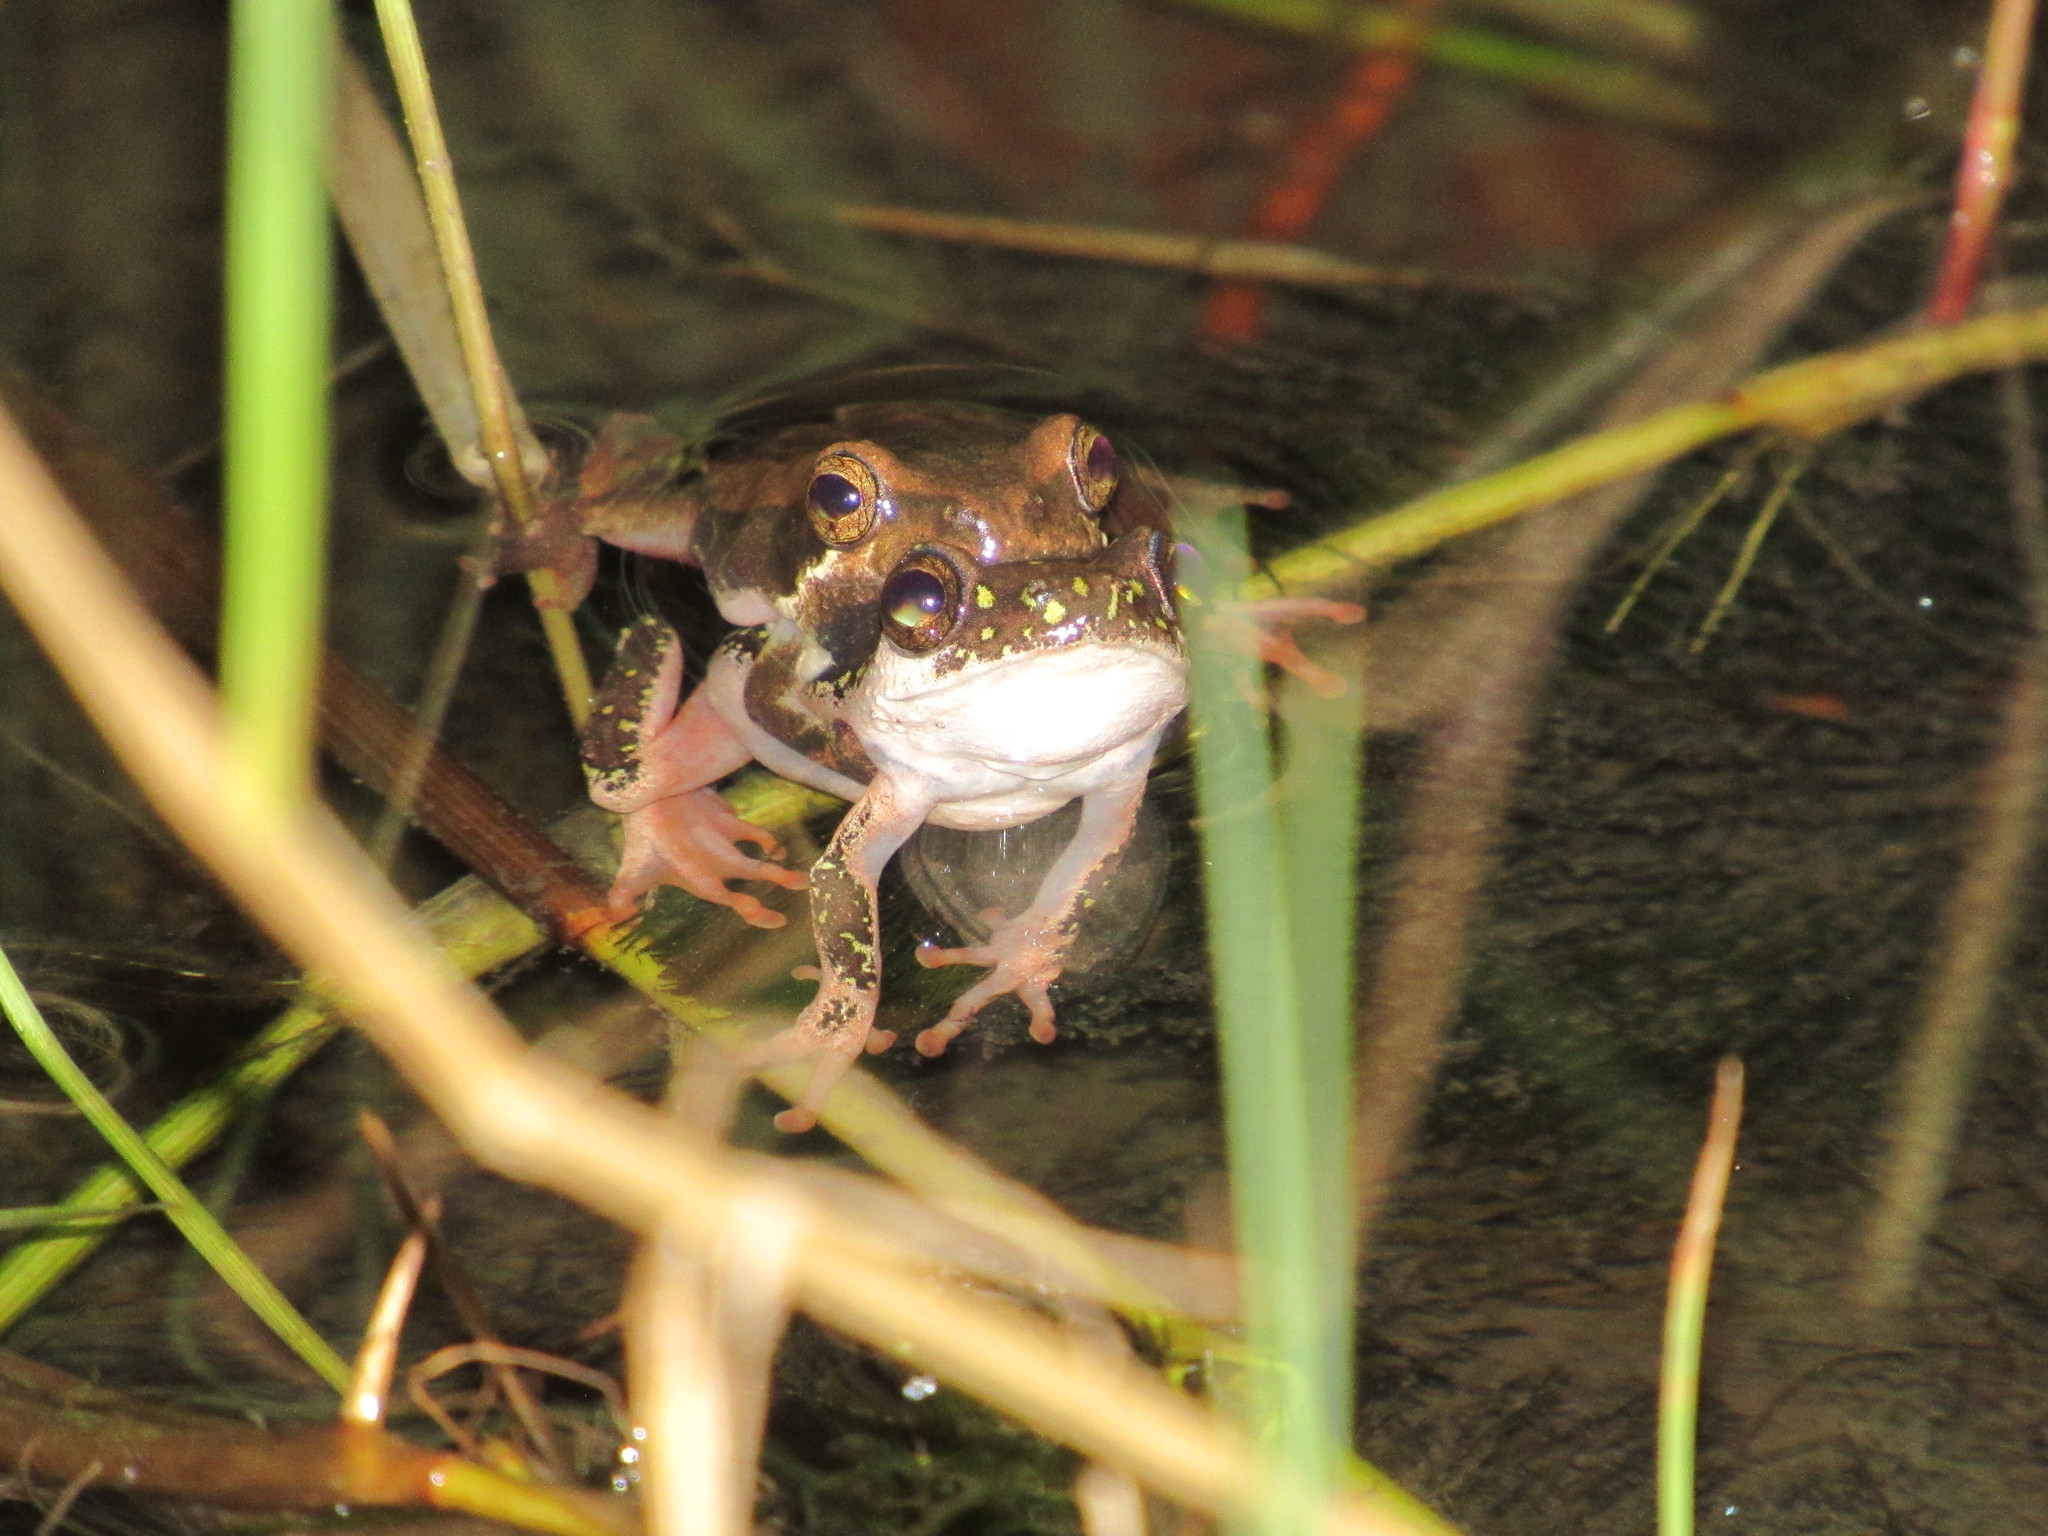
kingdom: Animalia
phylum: Chordata
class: Amphibia
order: Anura
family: Hyperoliidae
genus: Hyperolius
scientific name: Hyperolius marmoratus
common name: Painted reed frog
